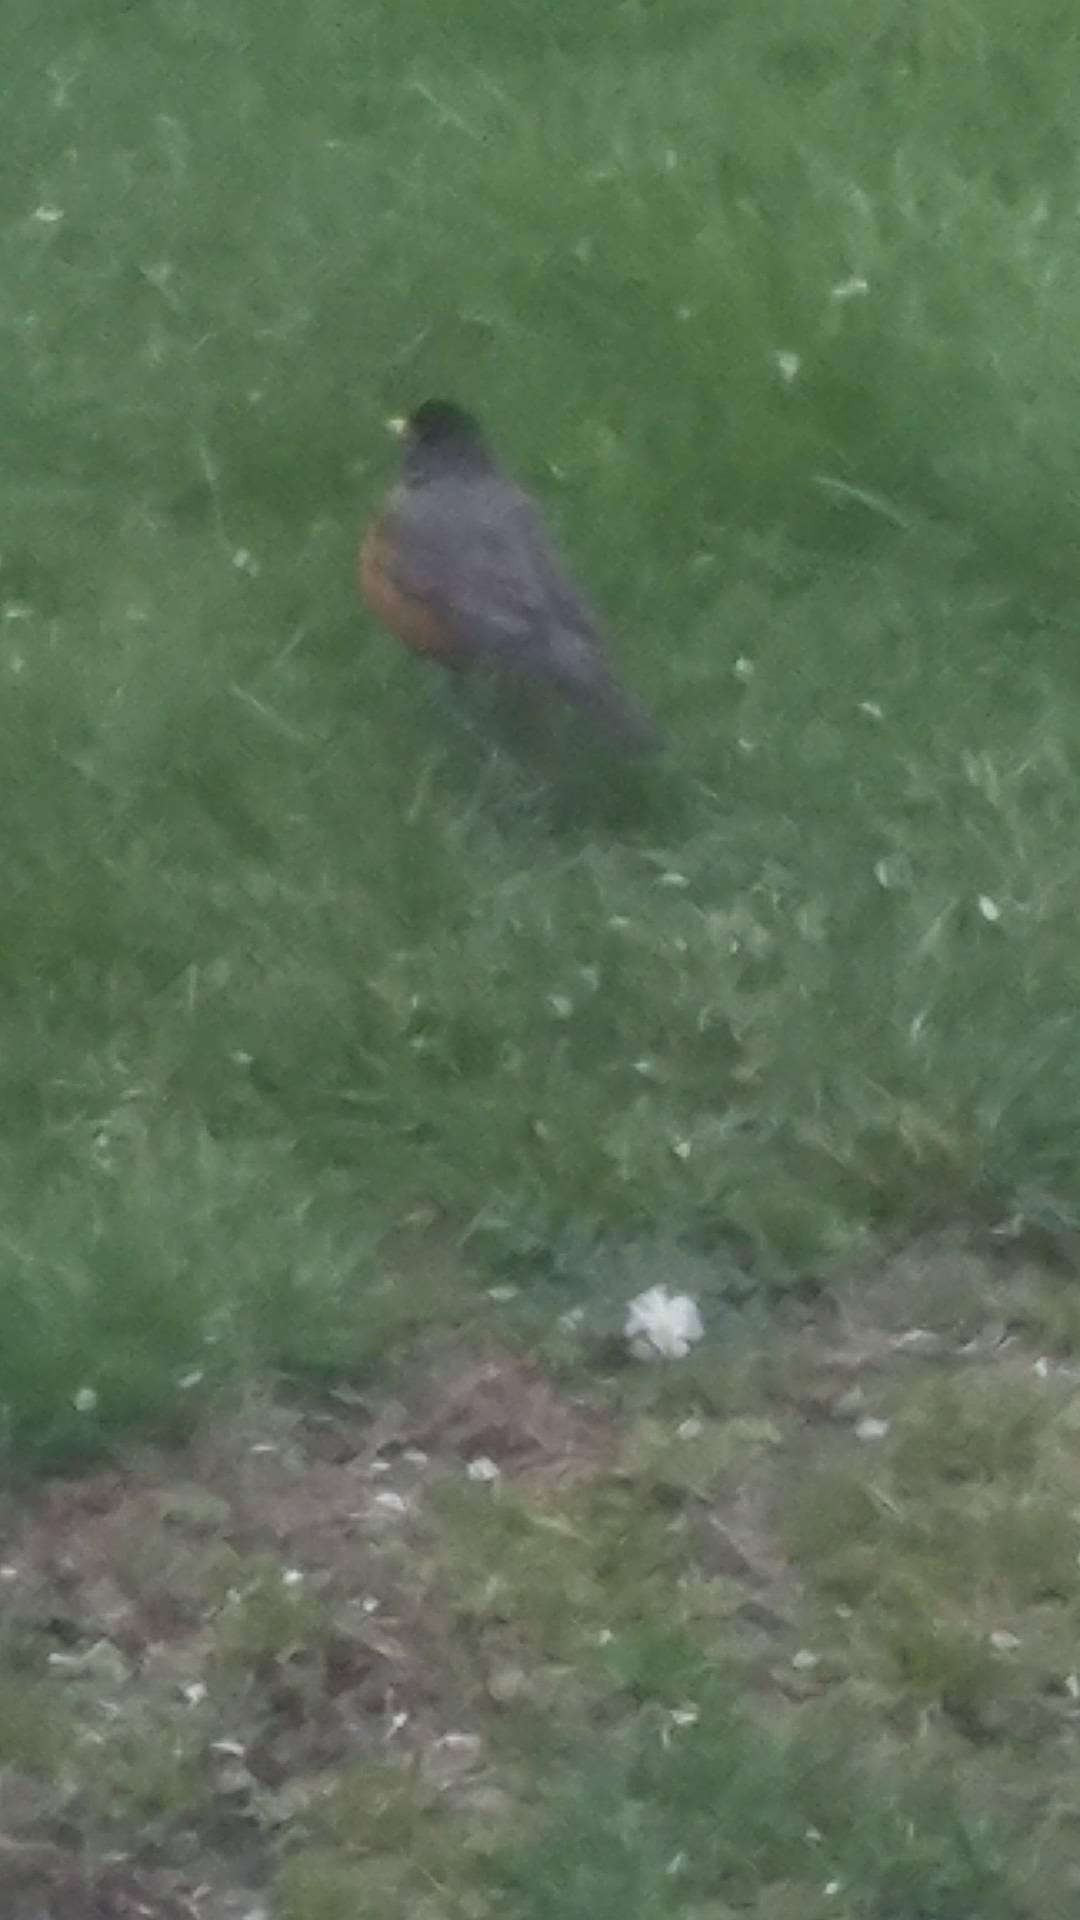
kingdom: Animalia
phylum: Chordata
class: Aves
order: Passeriformes
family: Turdidae
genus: Turdus
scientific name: Turdus migratorius
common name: American robin
